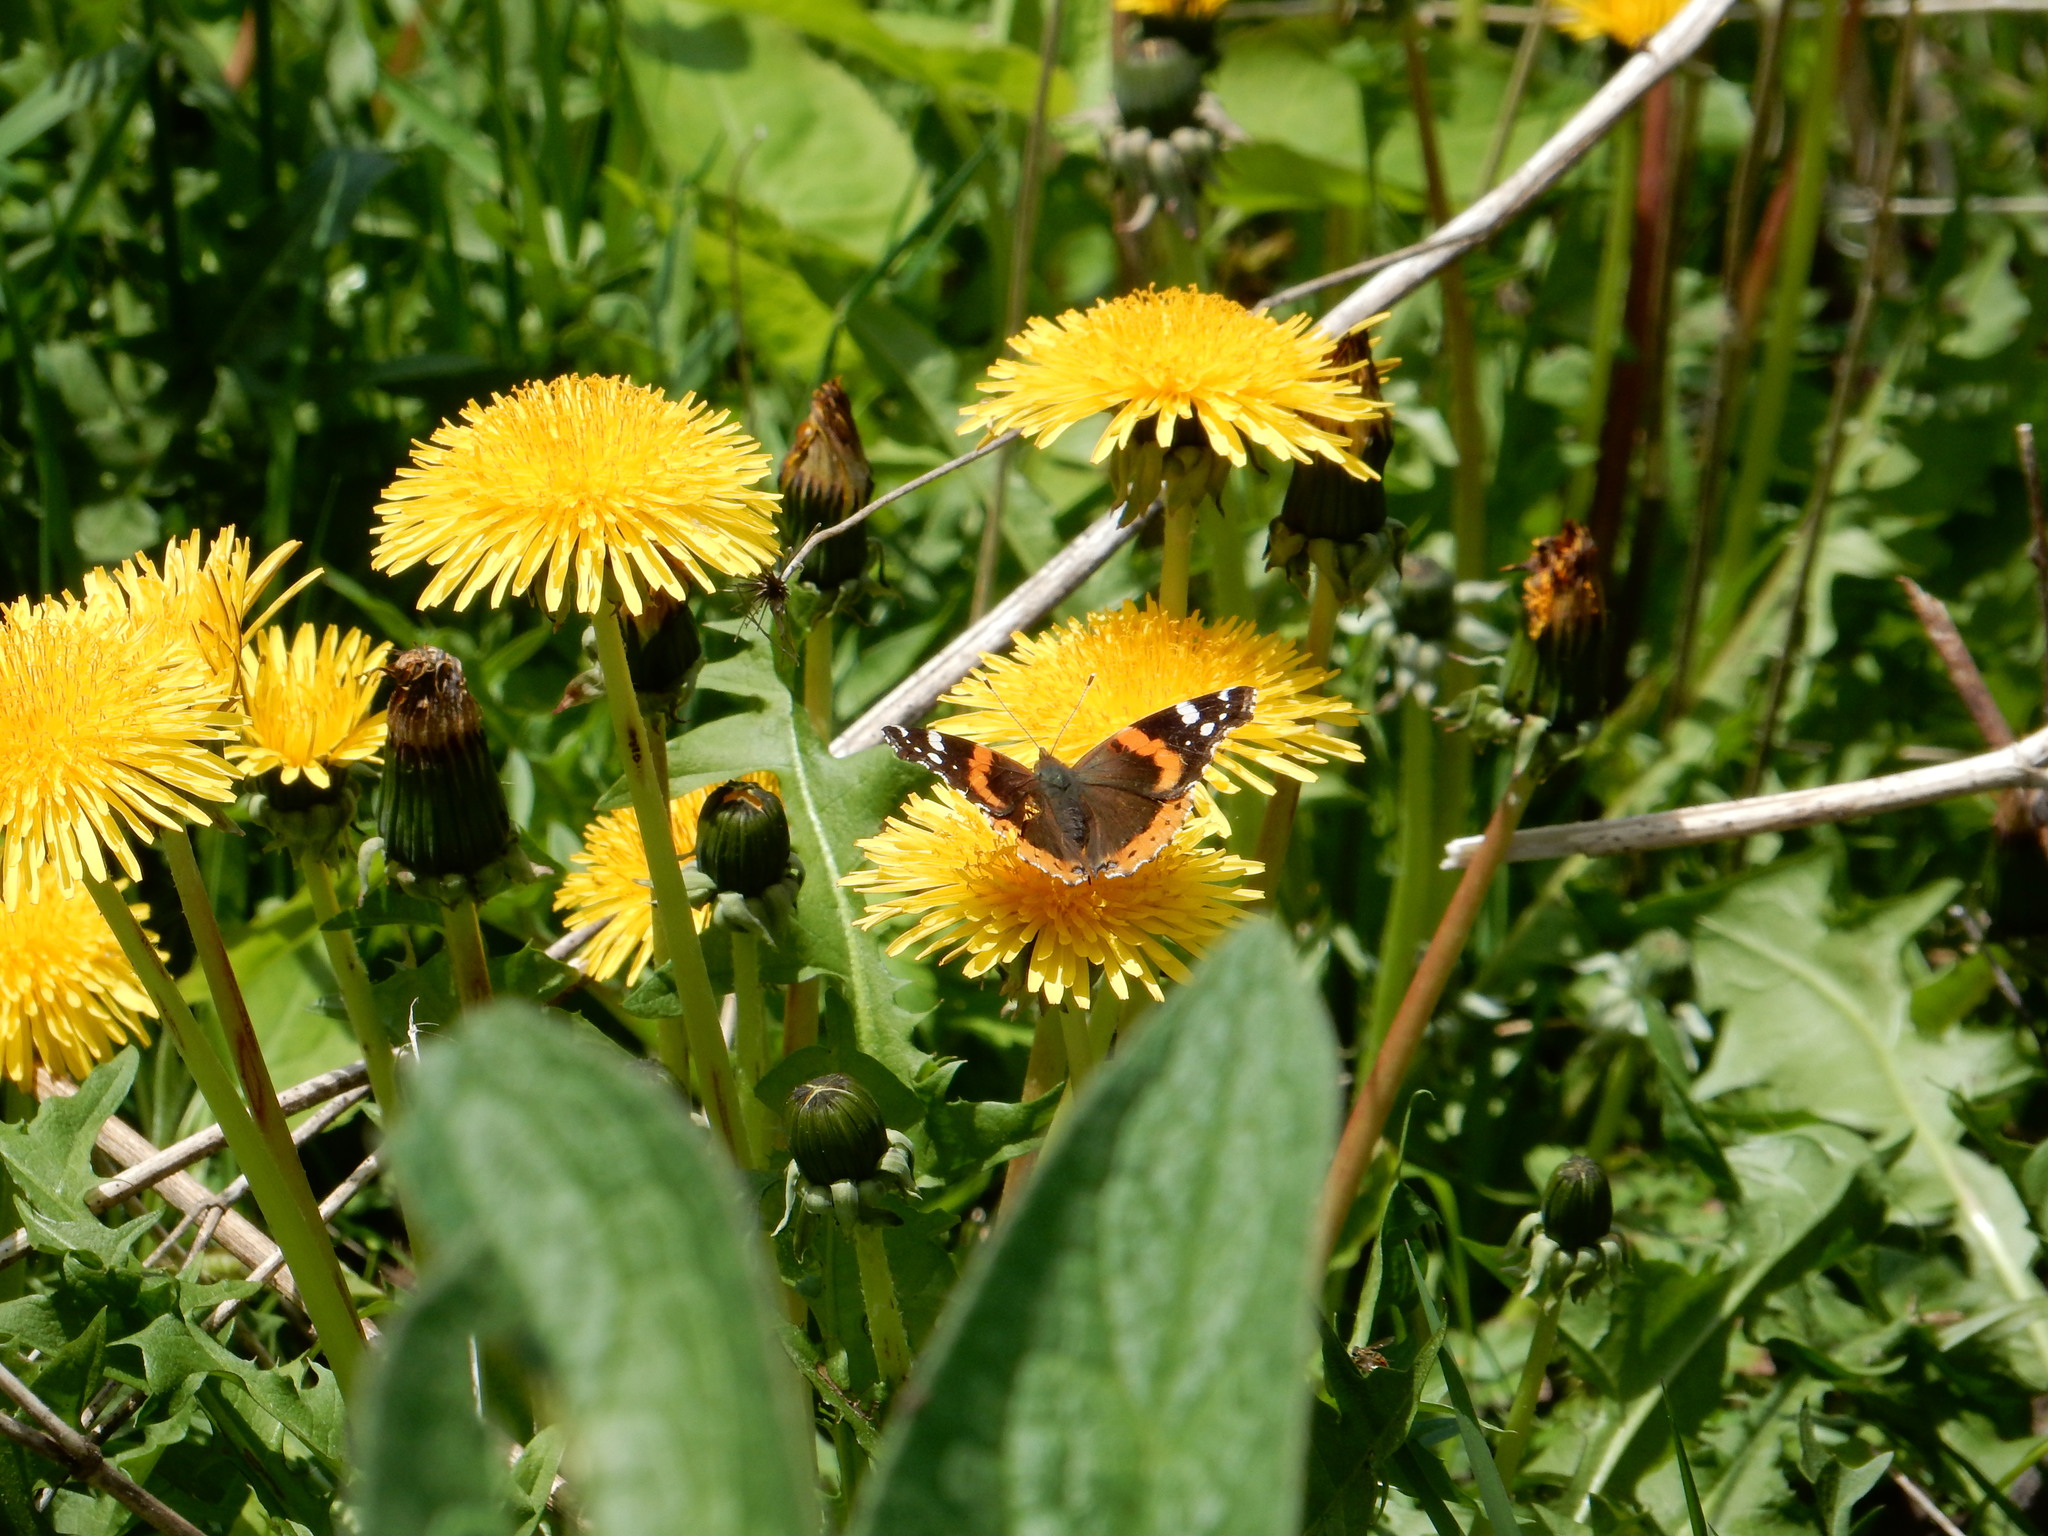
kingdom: Animalia
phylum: Arthropoda
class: Insecta
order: Lepidoptera
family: Nymphalidae
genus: Vanessa
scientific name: Vanessa atalanta
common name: Red admiral
